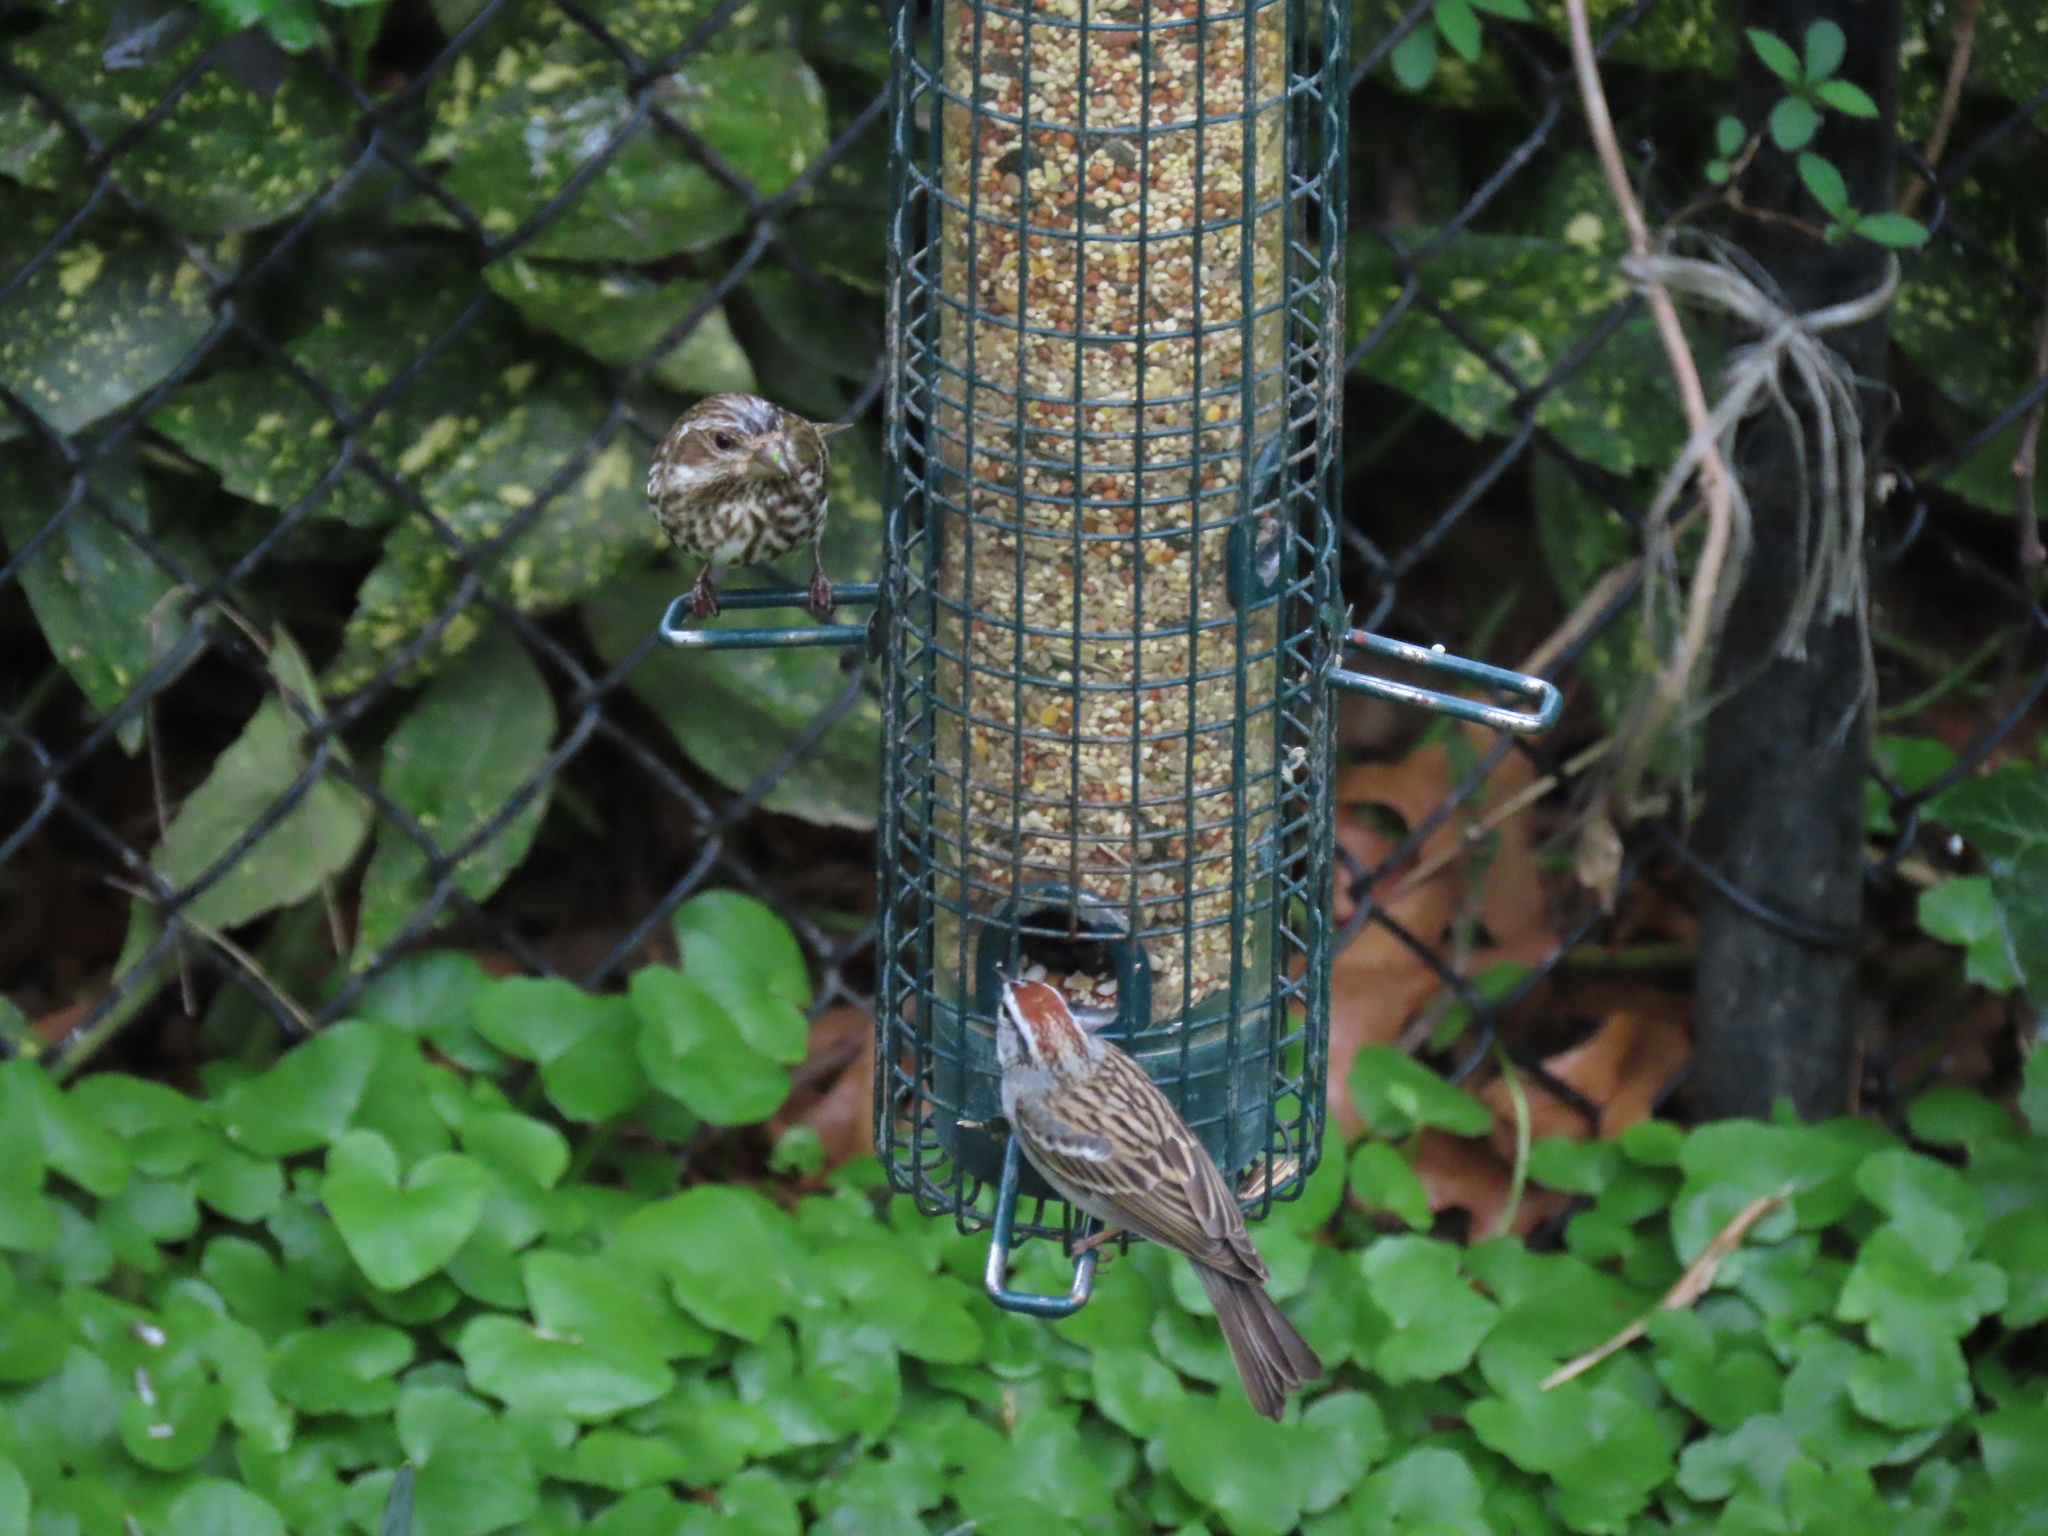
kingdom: Animalia
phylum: Chordata
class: Aves
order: Passeriformes
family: Fringillidae
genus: Haemorhous
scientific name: Haemorhous purpureus
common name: Purple finch
